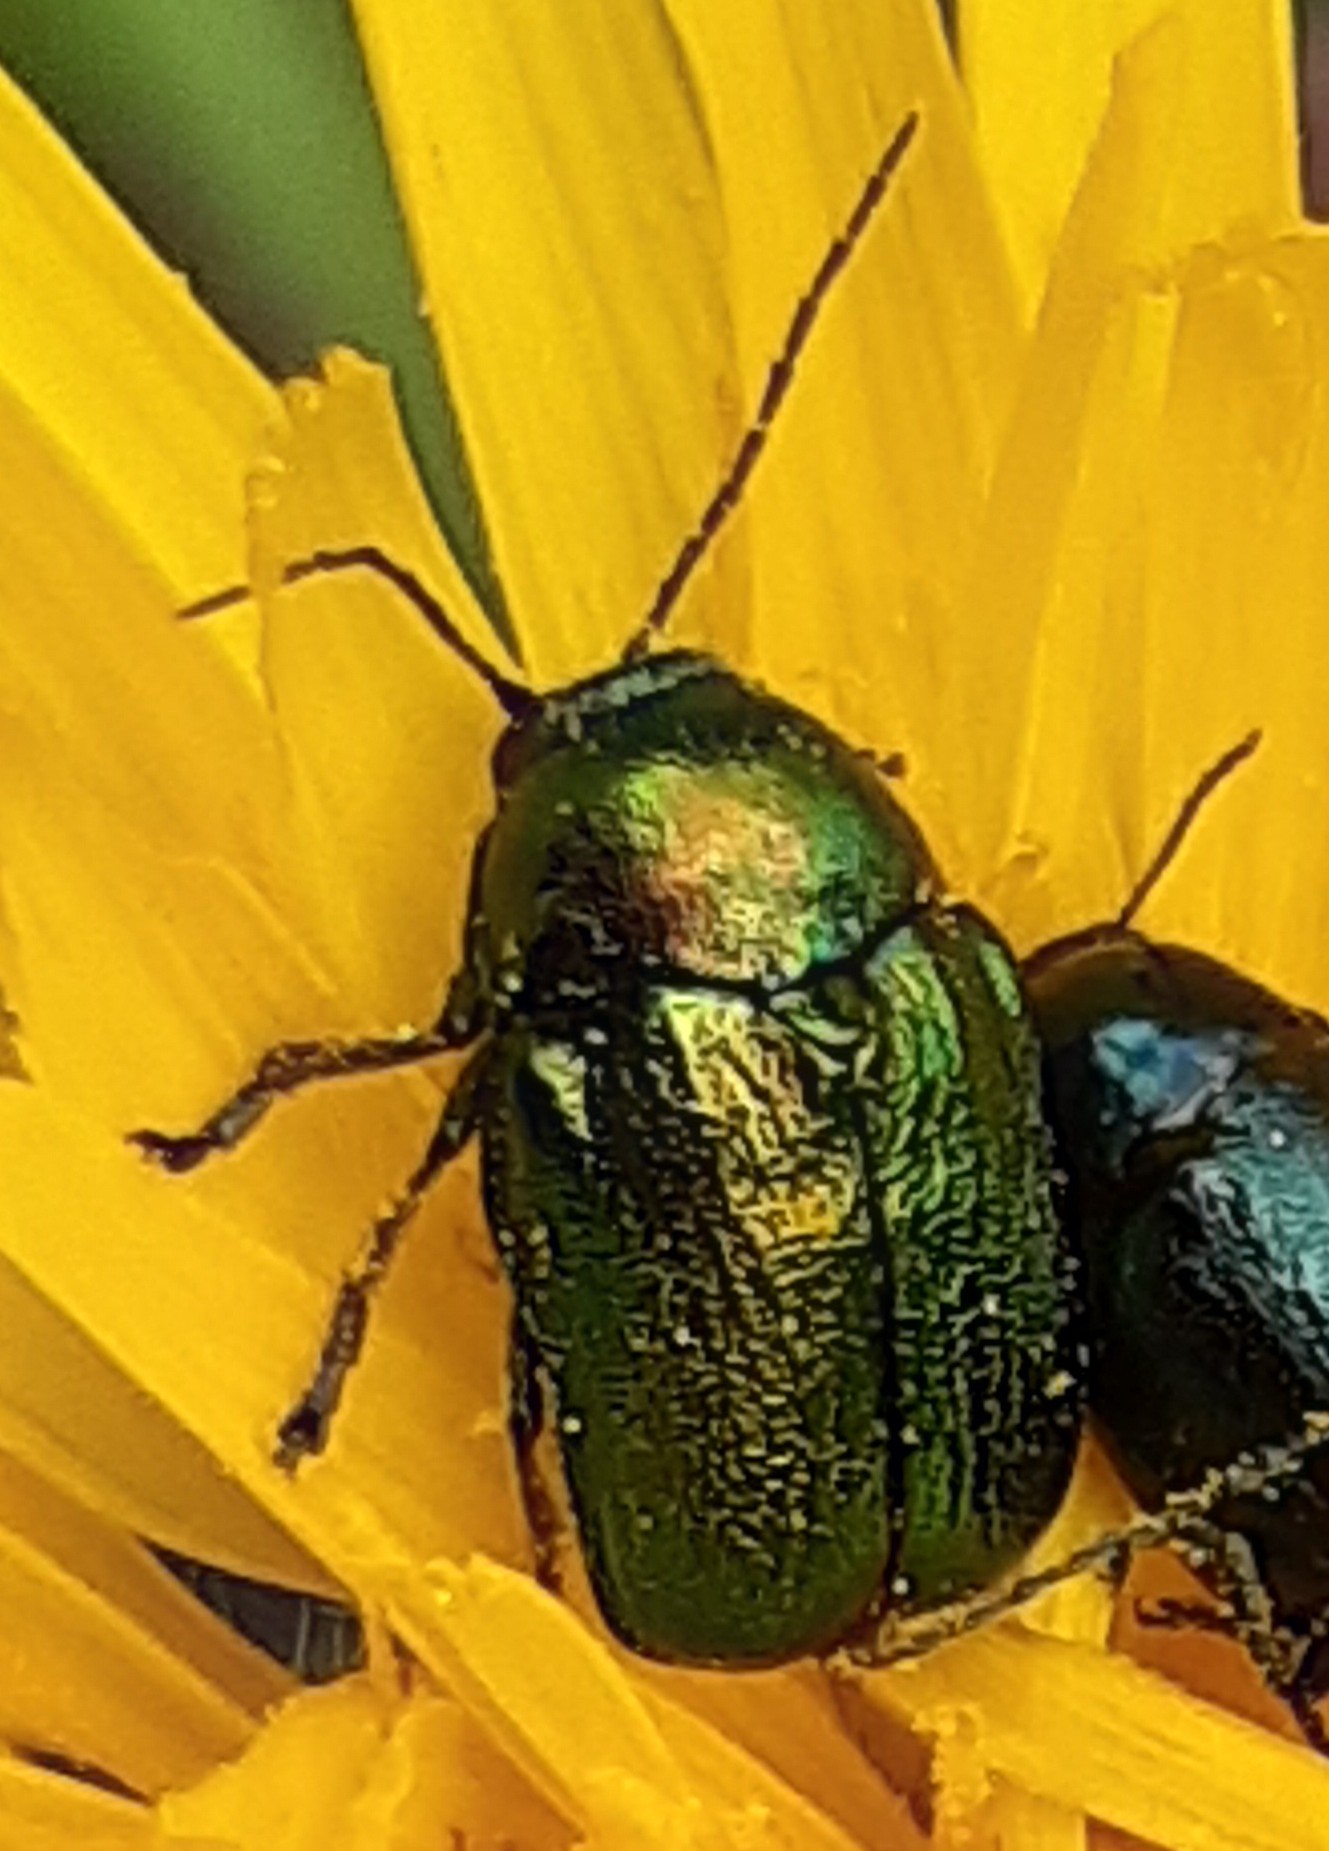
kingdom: Animalia
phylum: Arthropoda
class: Insecta
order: Coleoptera
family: Chrysomelidae
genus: Cryptocephalus
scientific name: Cryptocephalus
